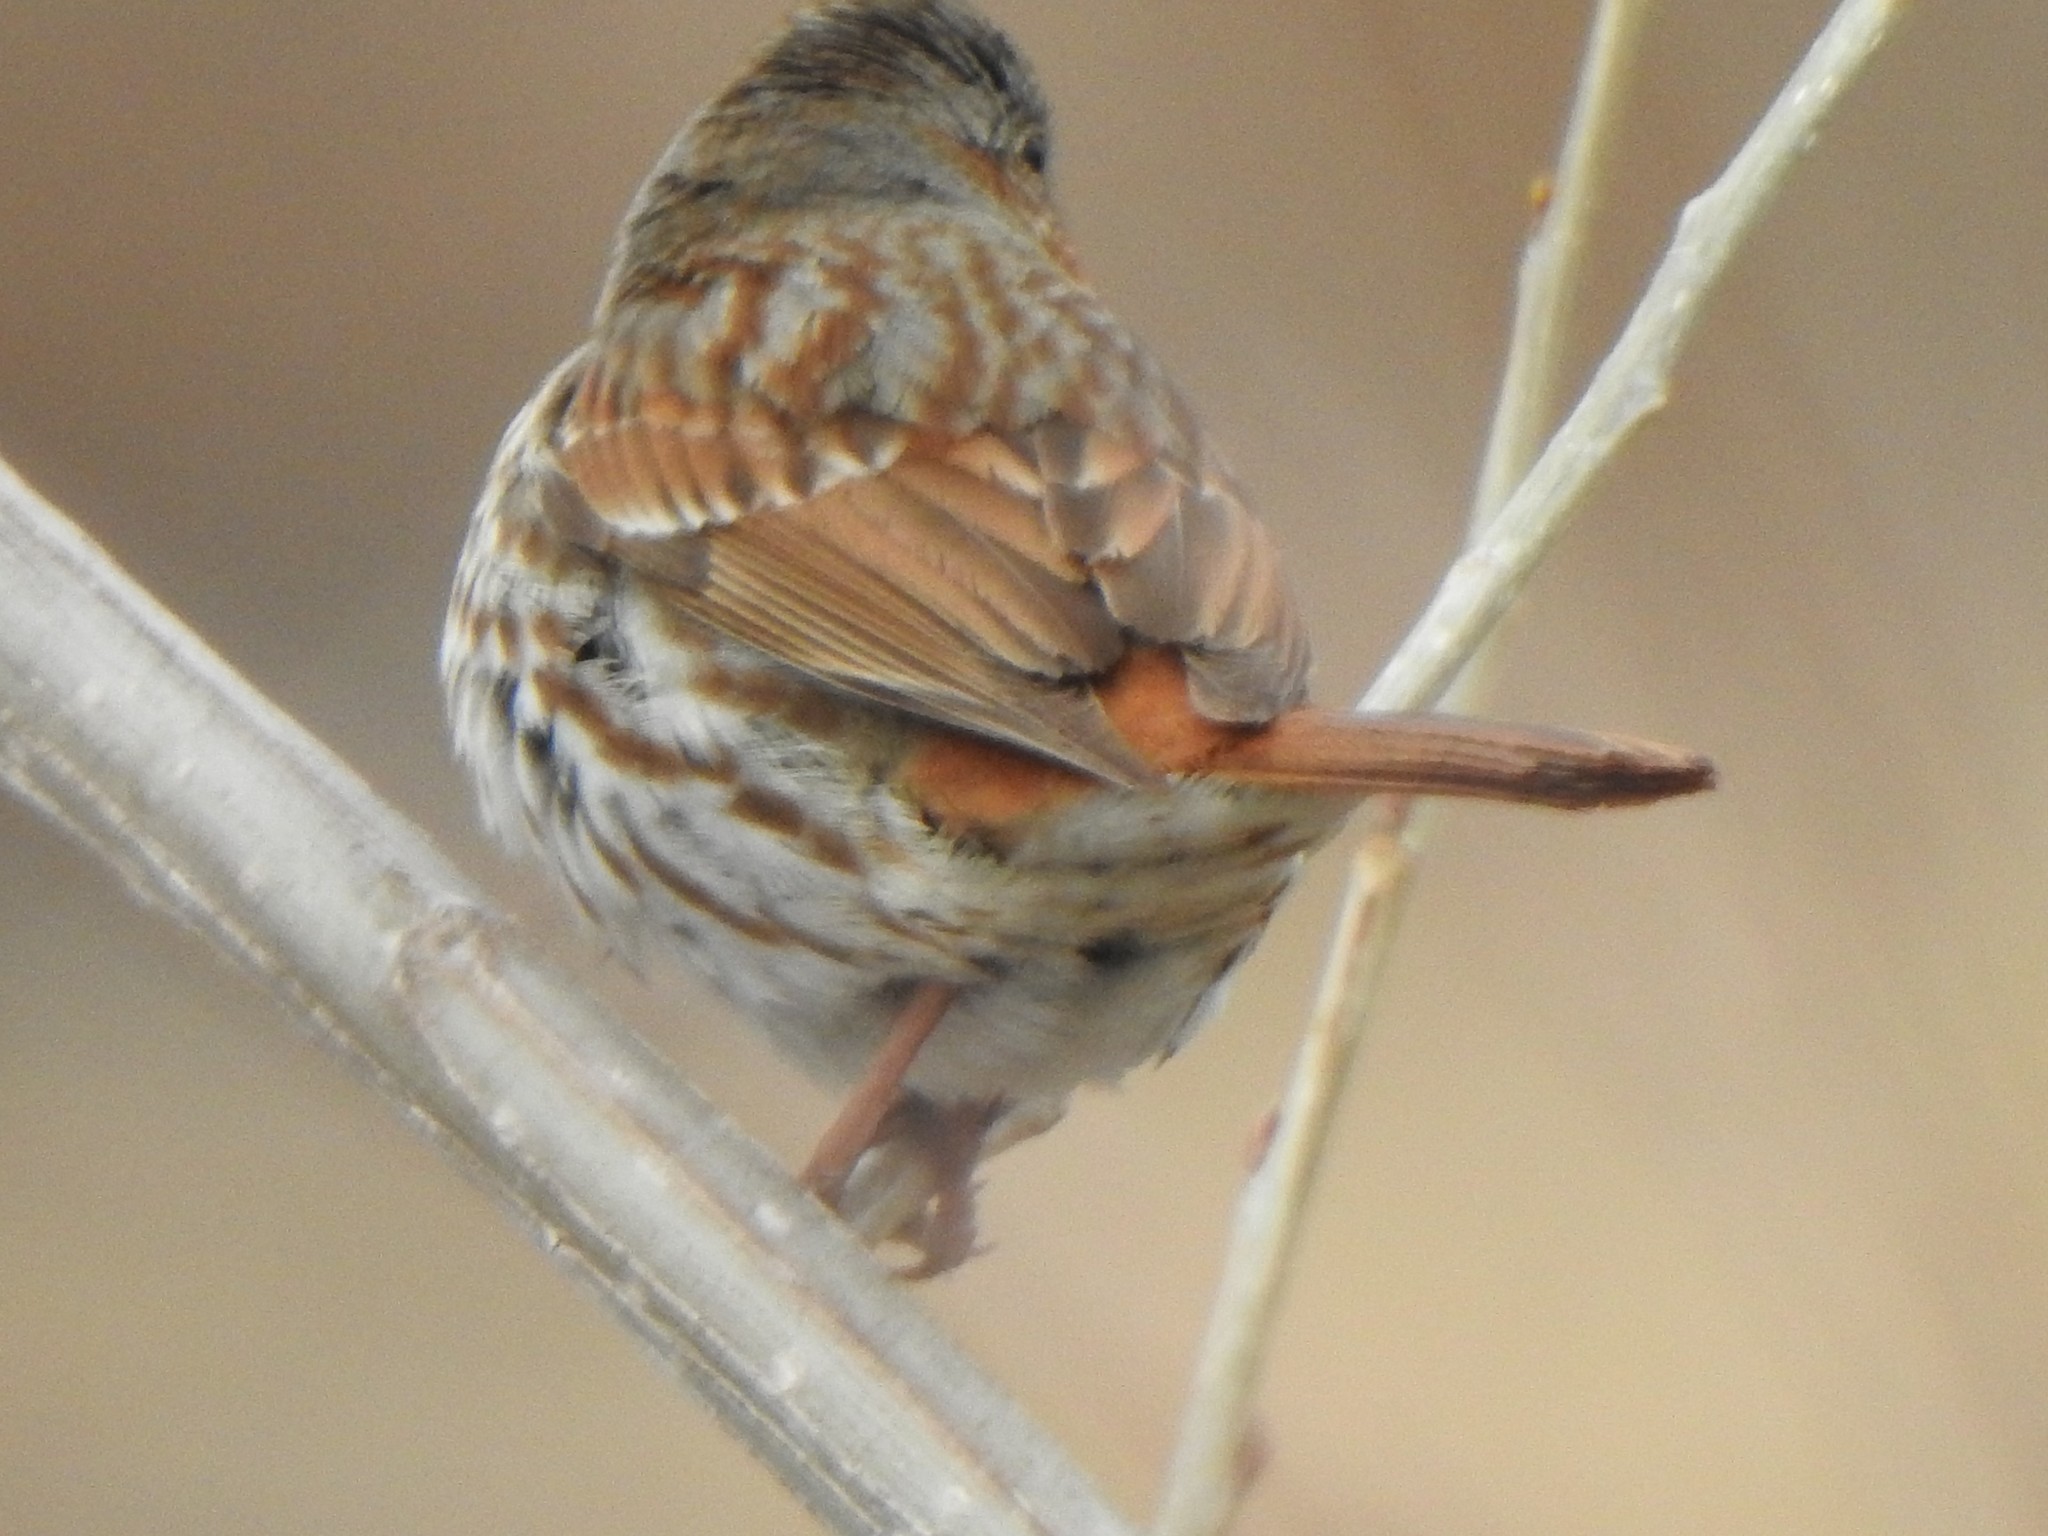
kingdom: Animalia
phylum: Chordata
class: Aves
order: Passeriformes
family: Passerellidae
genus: Passerella
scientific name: Passerella iliaca
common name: Fox sparrow
